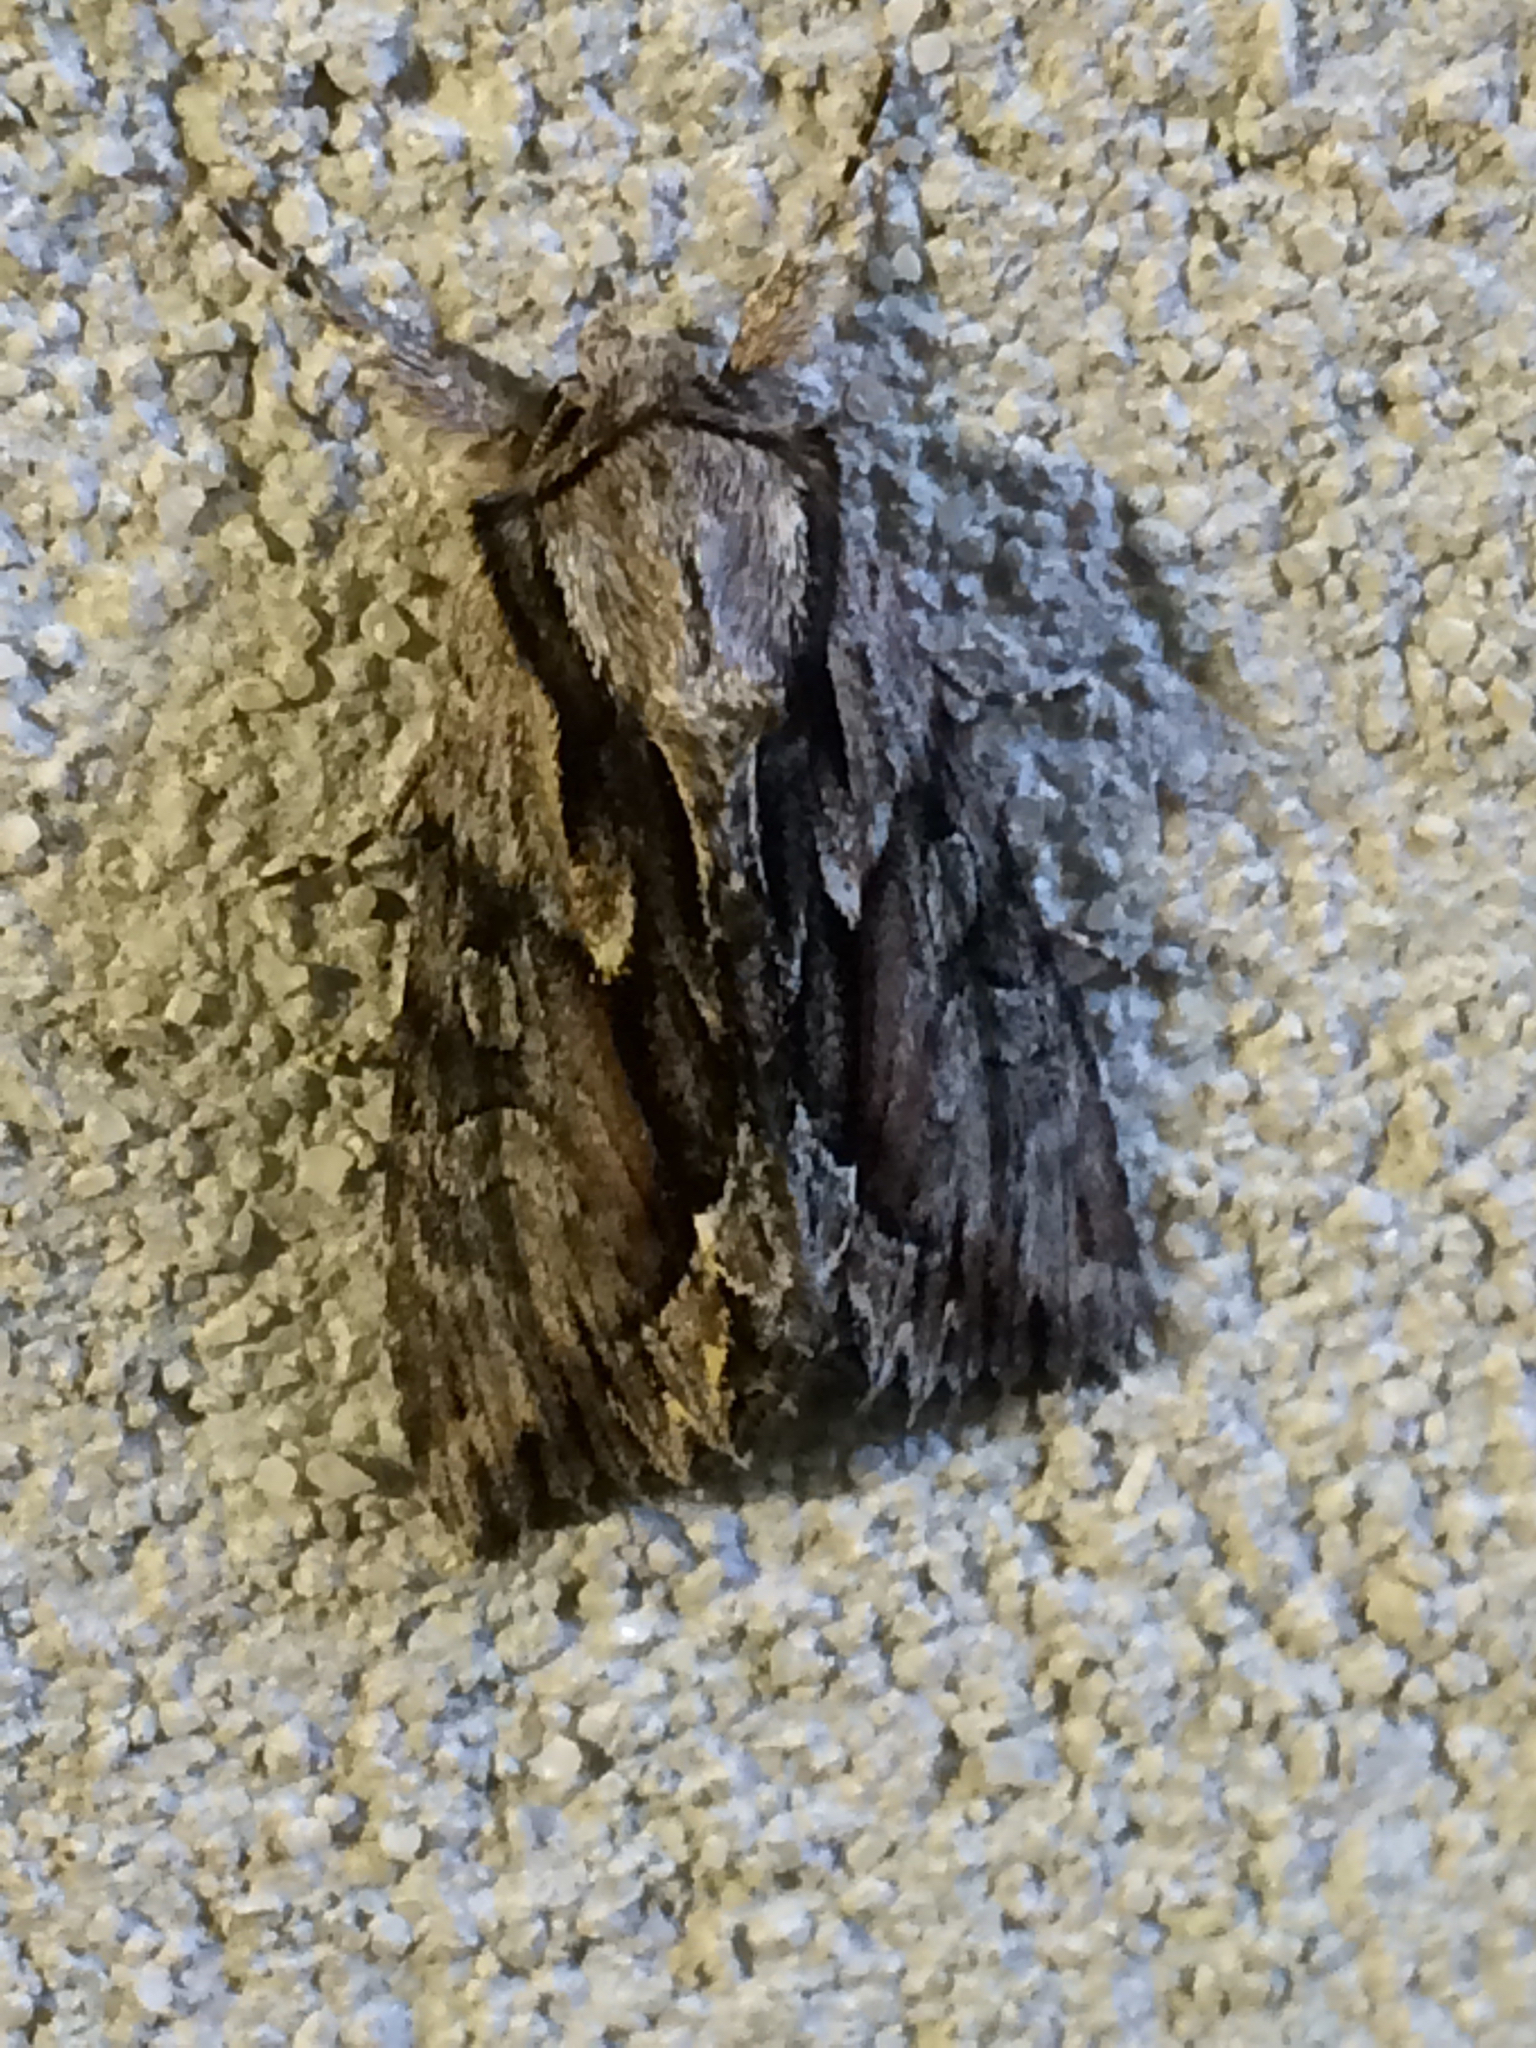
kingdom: Animalia
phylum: Arthropoda
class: Insecta
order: Lepidoptera
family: Noctuidae
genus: Hyppa
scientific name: Hyppa xylinoides
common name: Common hyppa moth
